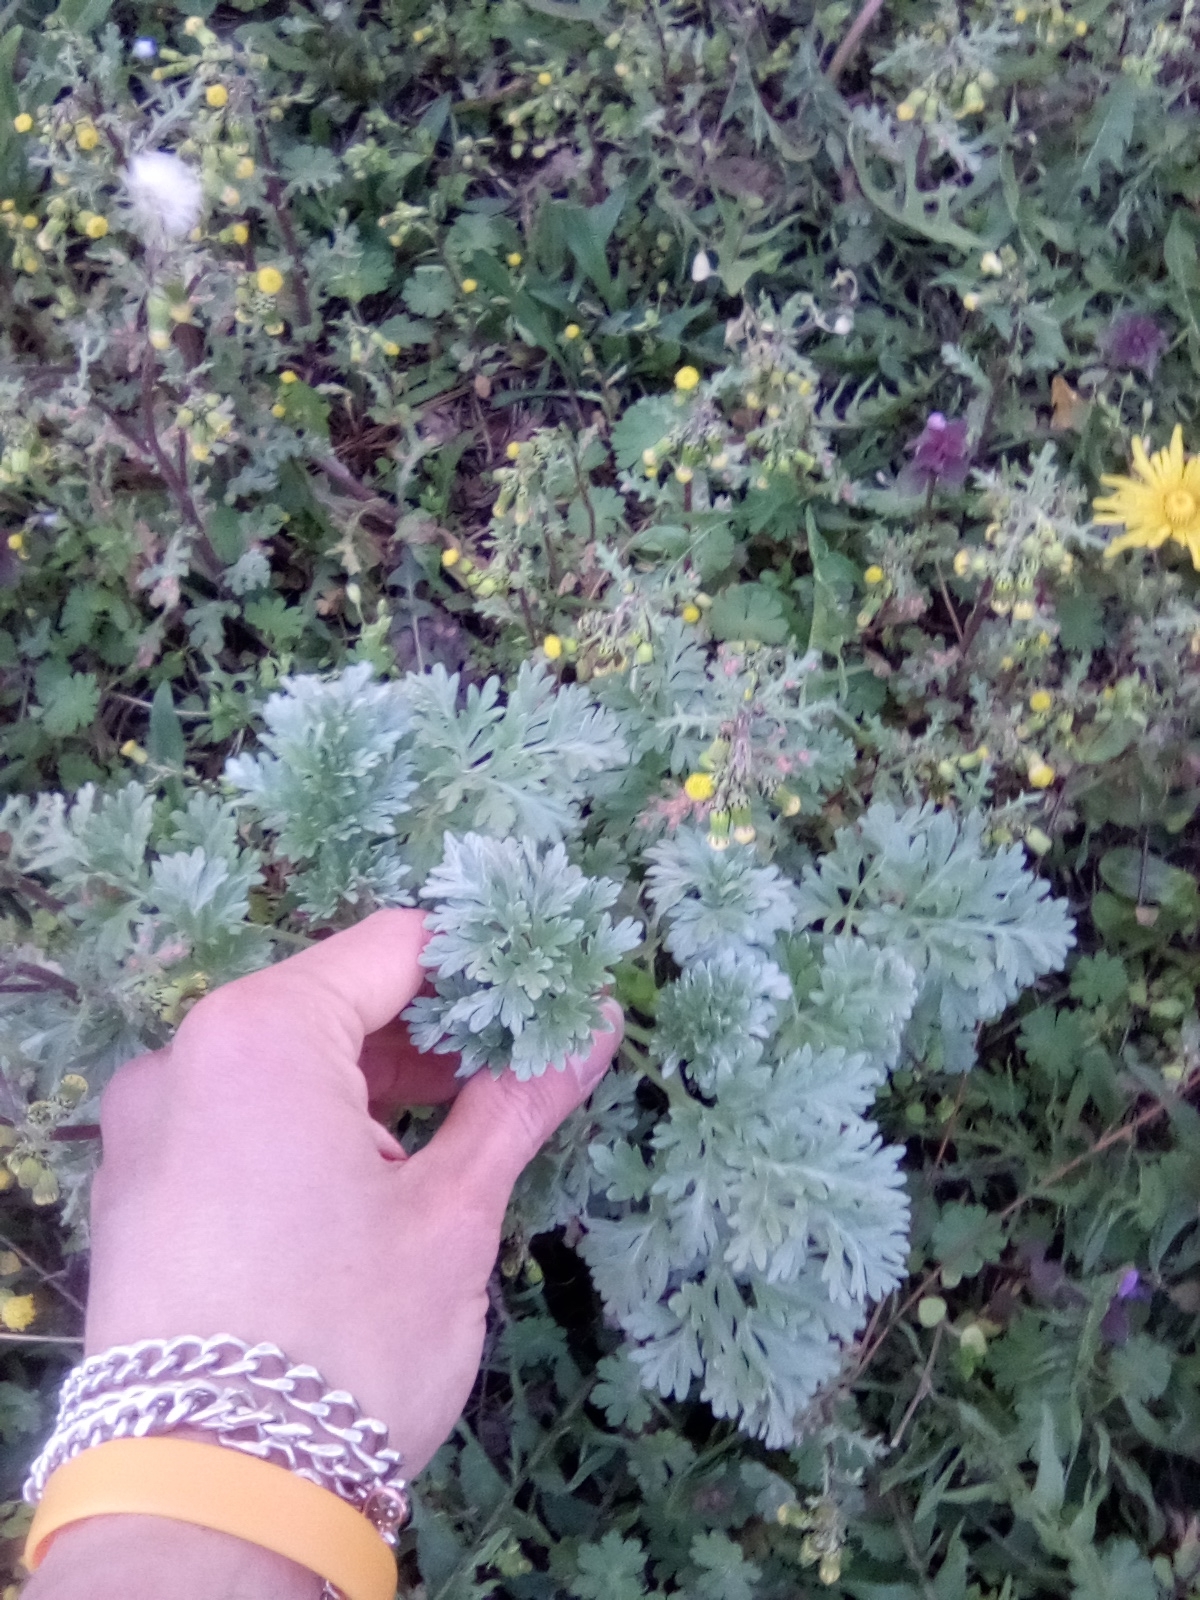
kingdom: Plantae
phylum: Tracheophyta
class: Magnoliopsida
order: Asterales
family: Asteraceae
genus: Artemisia
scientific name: Artemisia absinthium
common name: Wormwood
